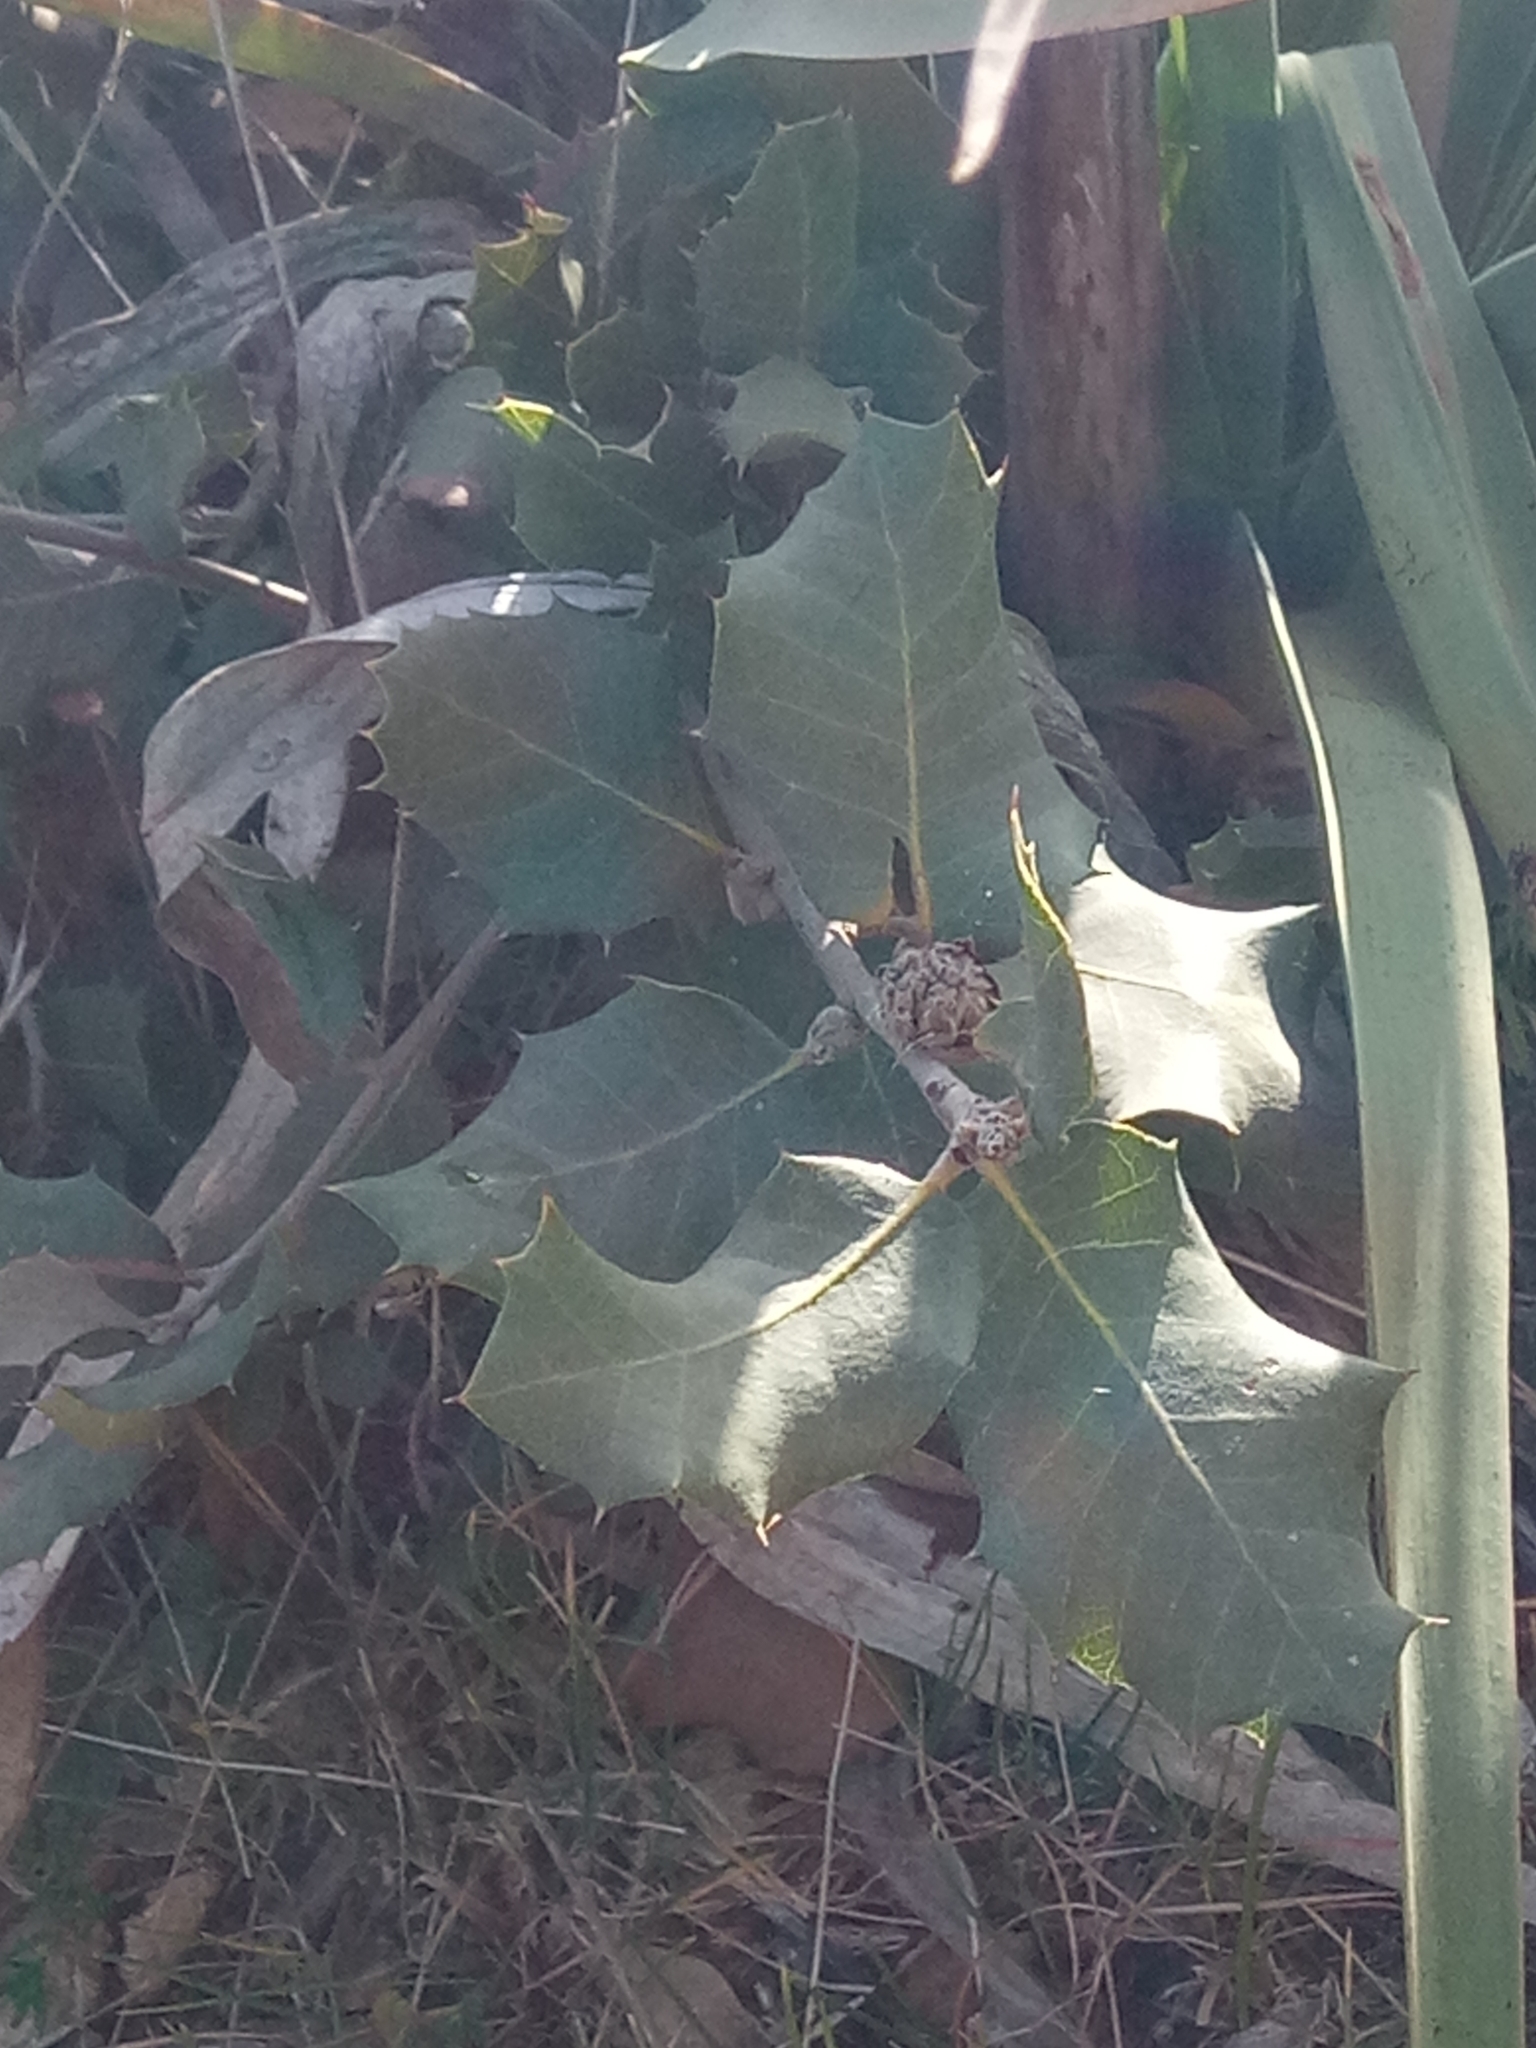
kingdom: Plantae
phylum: Tracheophyta
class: Magnoliopsida
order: Fagales
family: Fagaceae
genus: Quercus
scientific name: Quercus rotundifolia
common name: Holm oak
